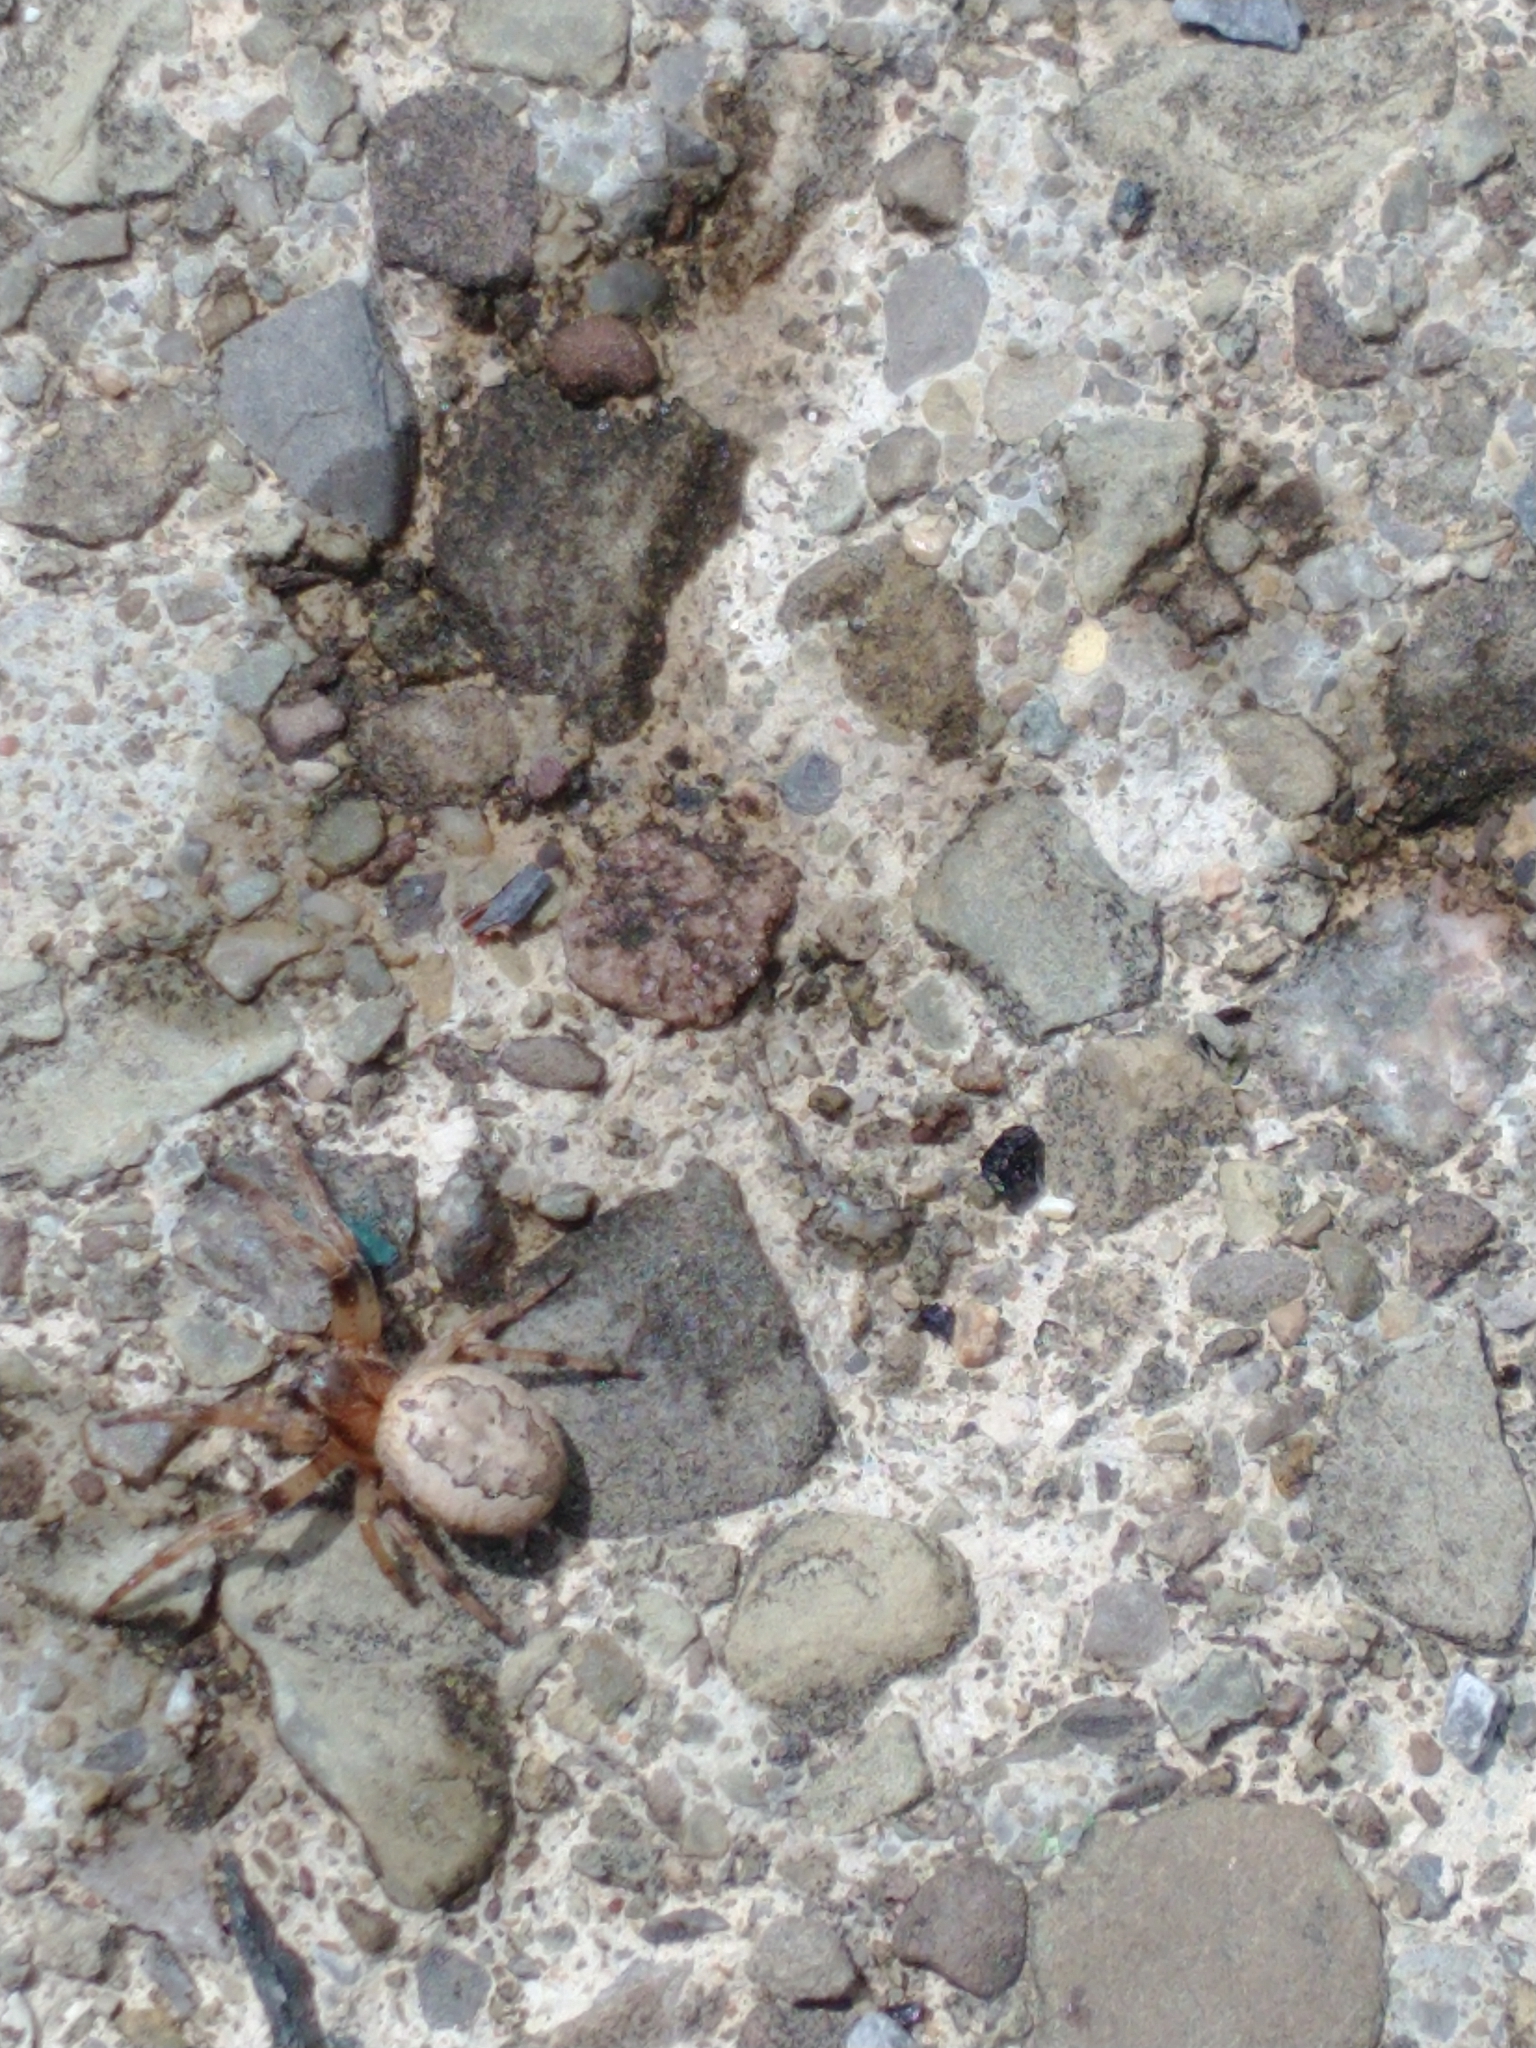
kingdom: Animalia
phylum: Arthropoda
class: Arachnida
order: Araneae
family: Araneidae
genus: Larinioides
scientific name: Larinioides cornutus
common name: Furrow orbweaver
